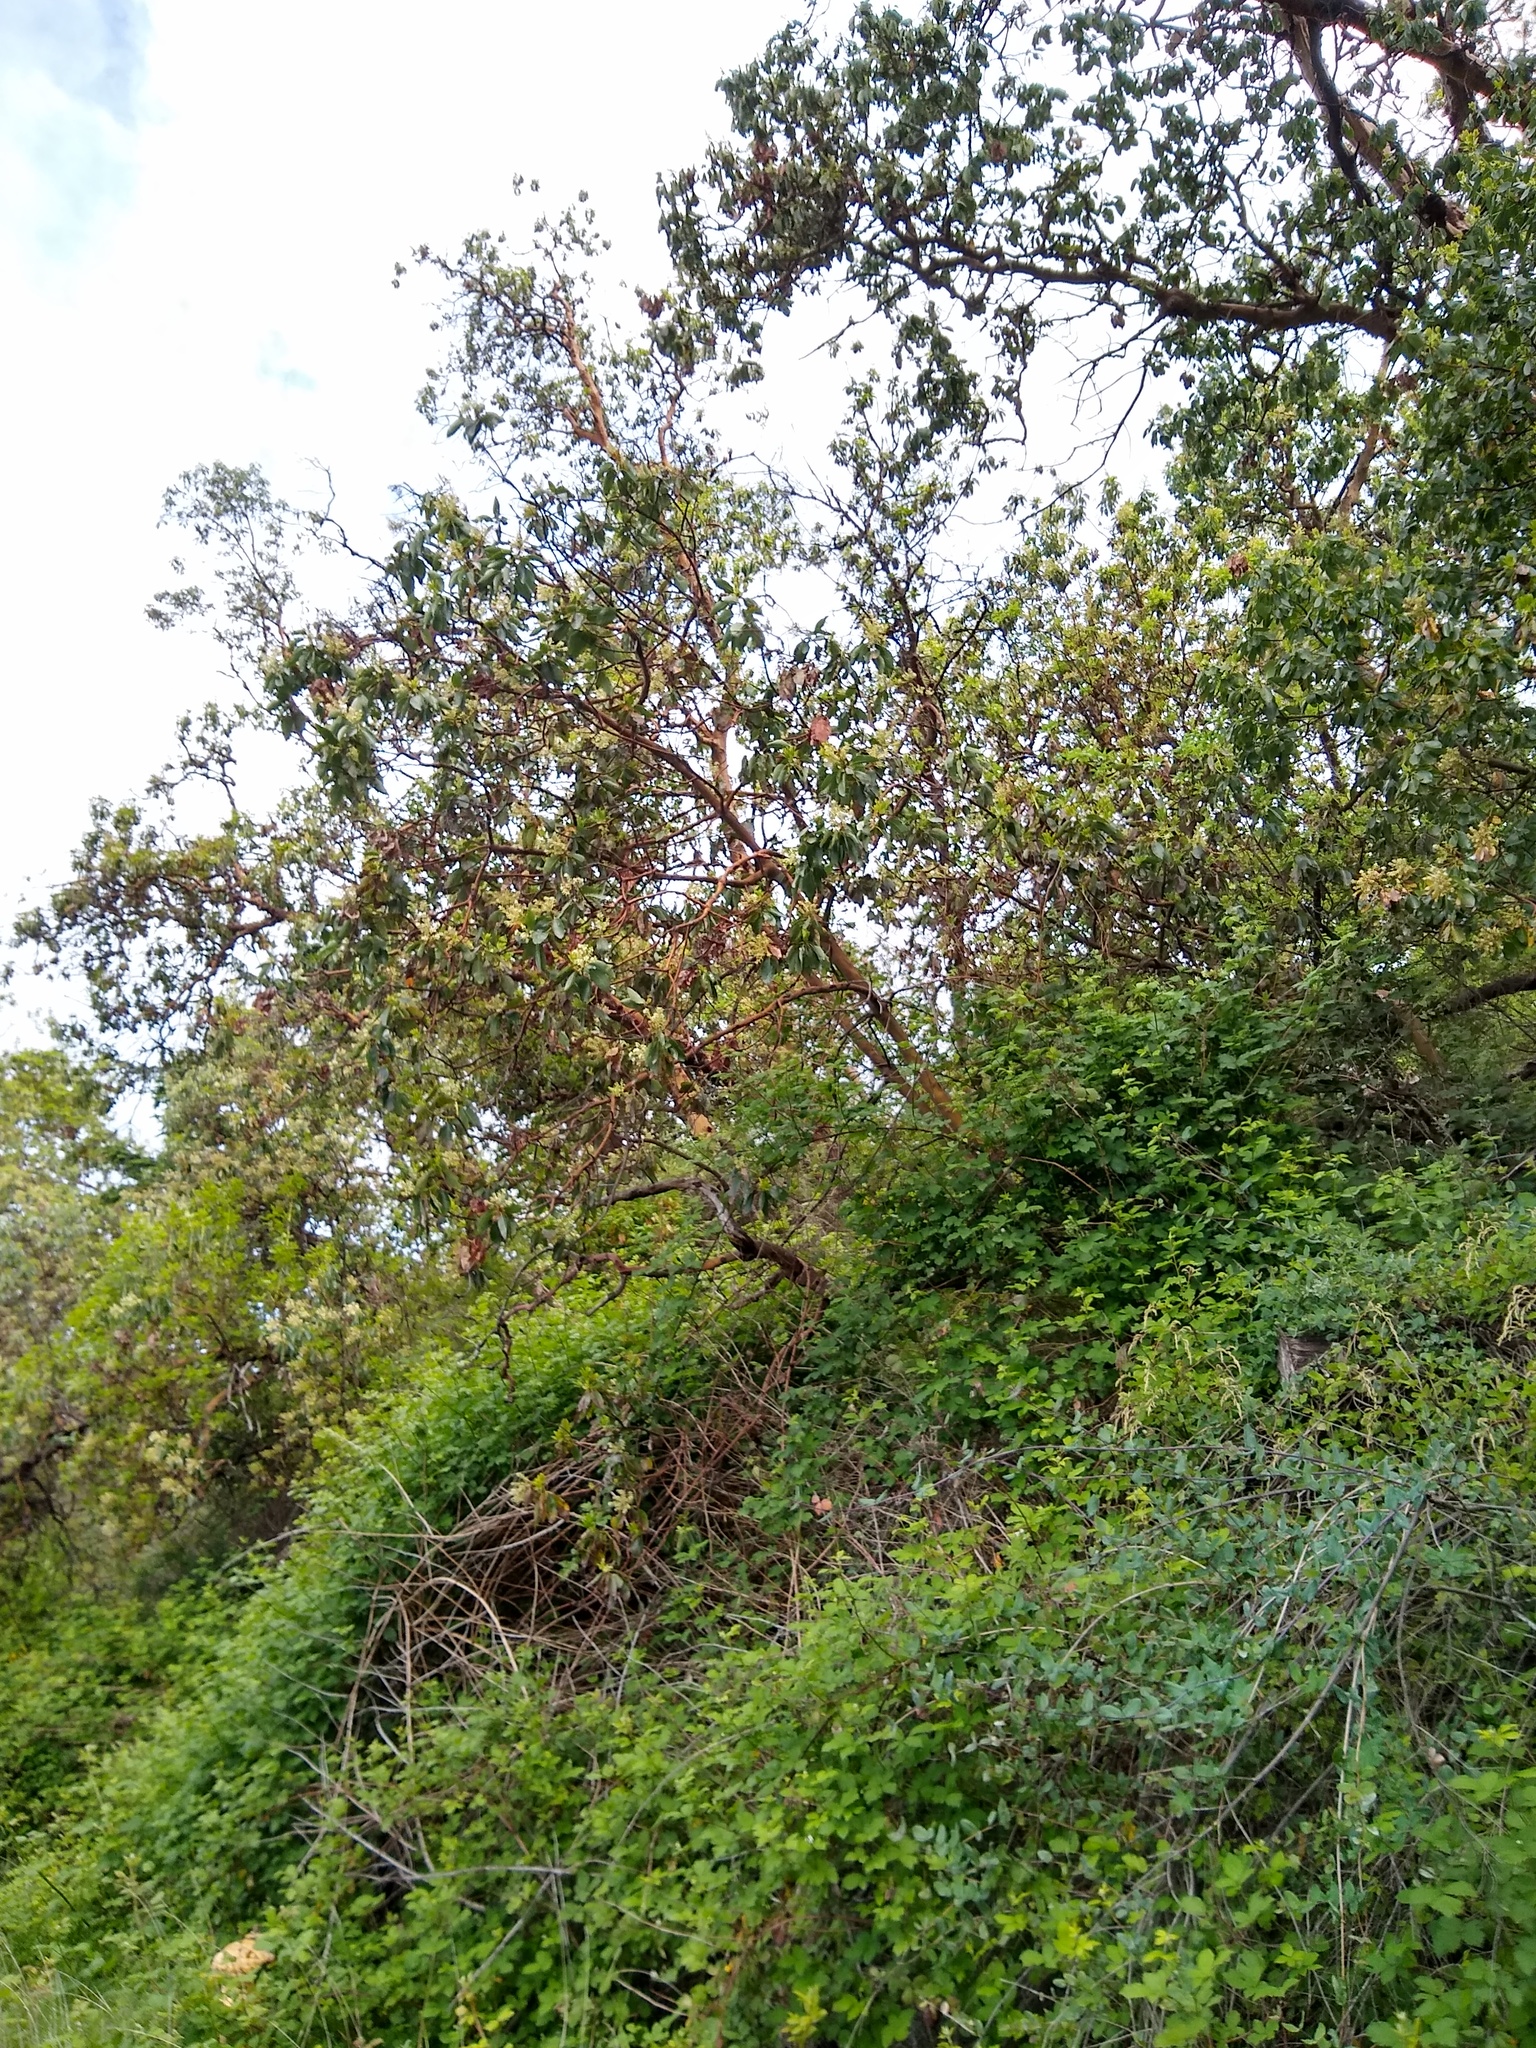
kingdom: Plantae
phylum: Tracheophyta
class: Magnoliopsida
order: Ericales
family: Ericaceae
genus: Arbutus
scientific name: Arbutus menziesii
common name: Pacific madrone
